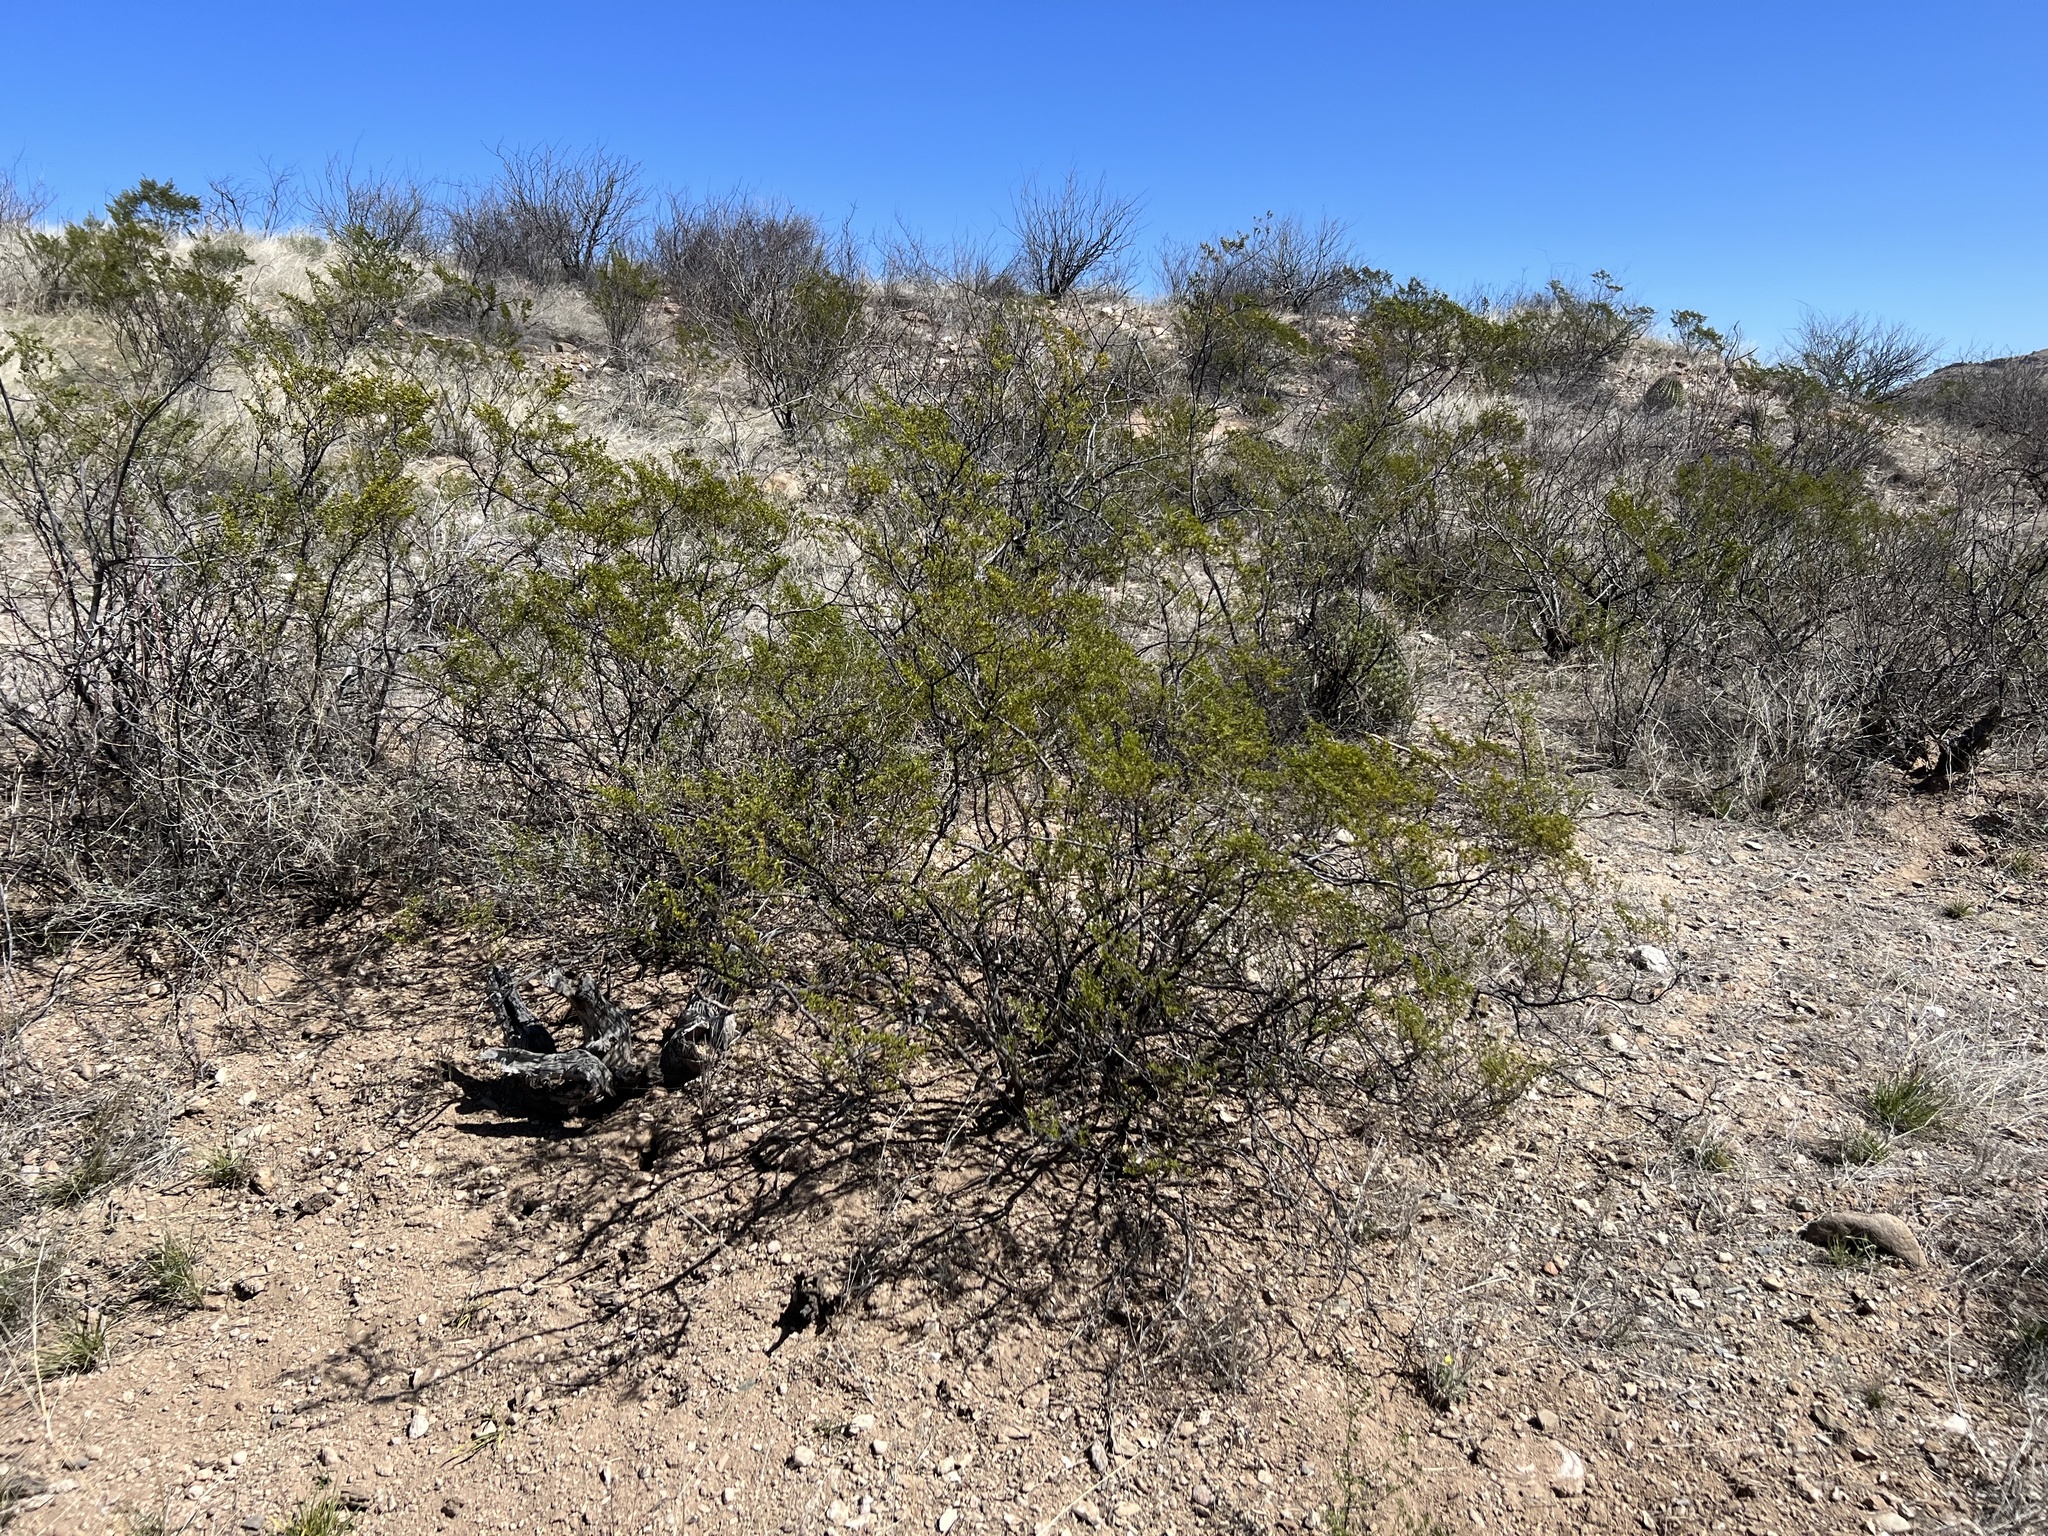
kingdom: Plantae
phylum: Tracheophyta
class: Magnoliopsida
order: Zygophyllales
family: Zygophyllaceae
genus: Larrea
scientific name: Larrea tridentata
